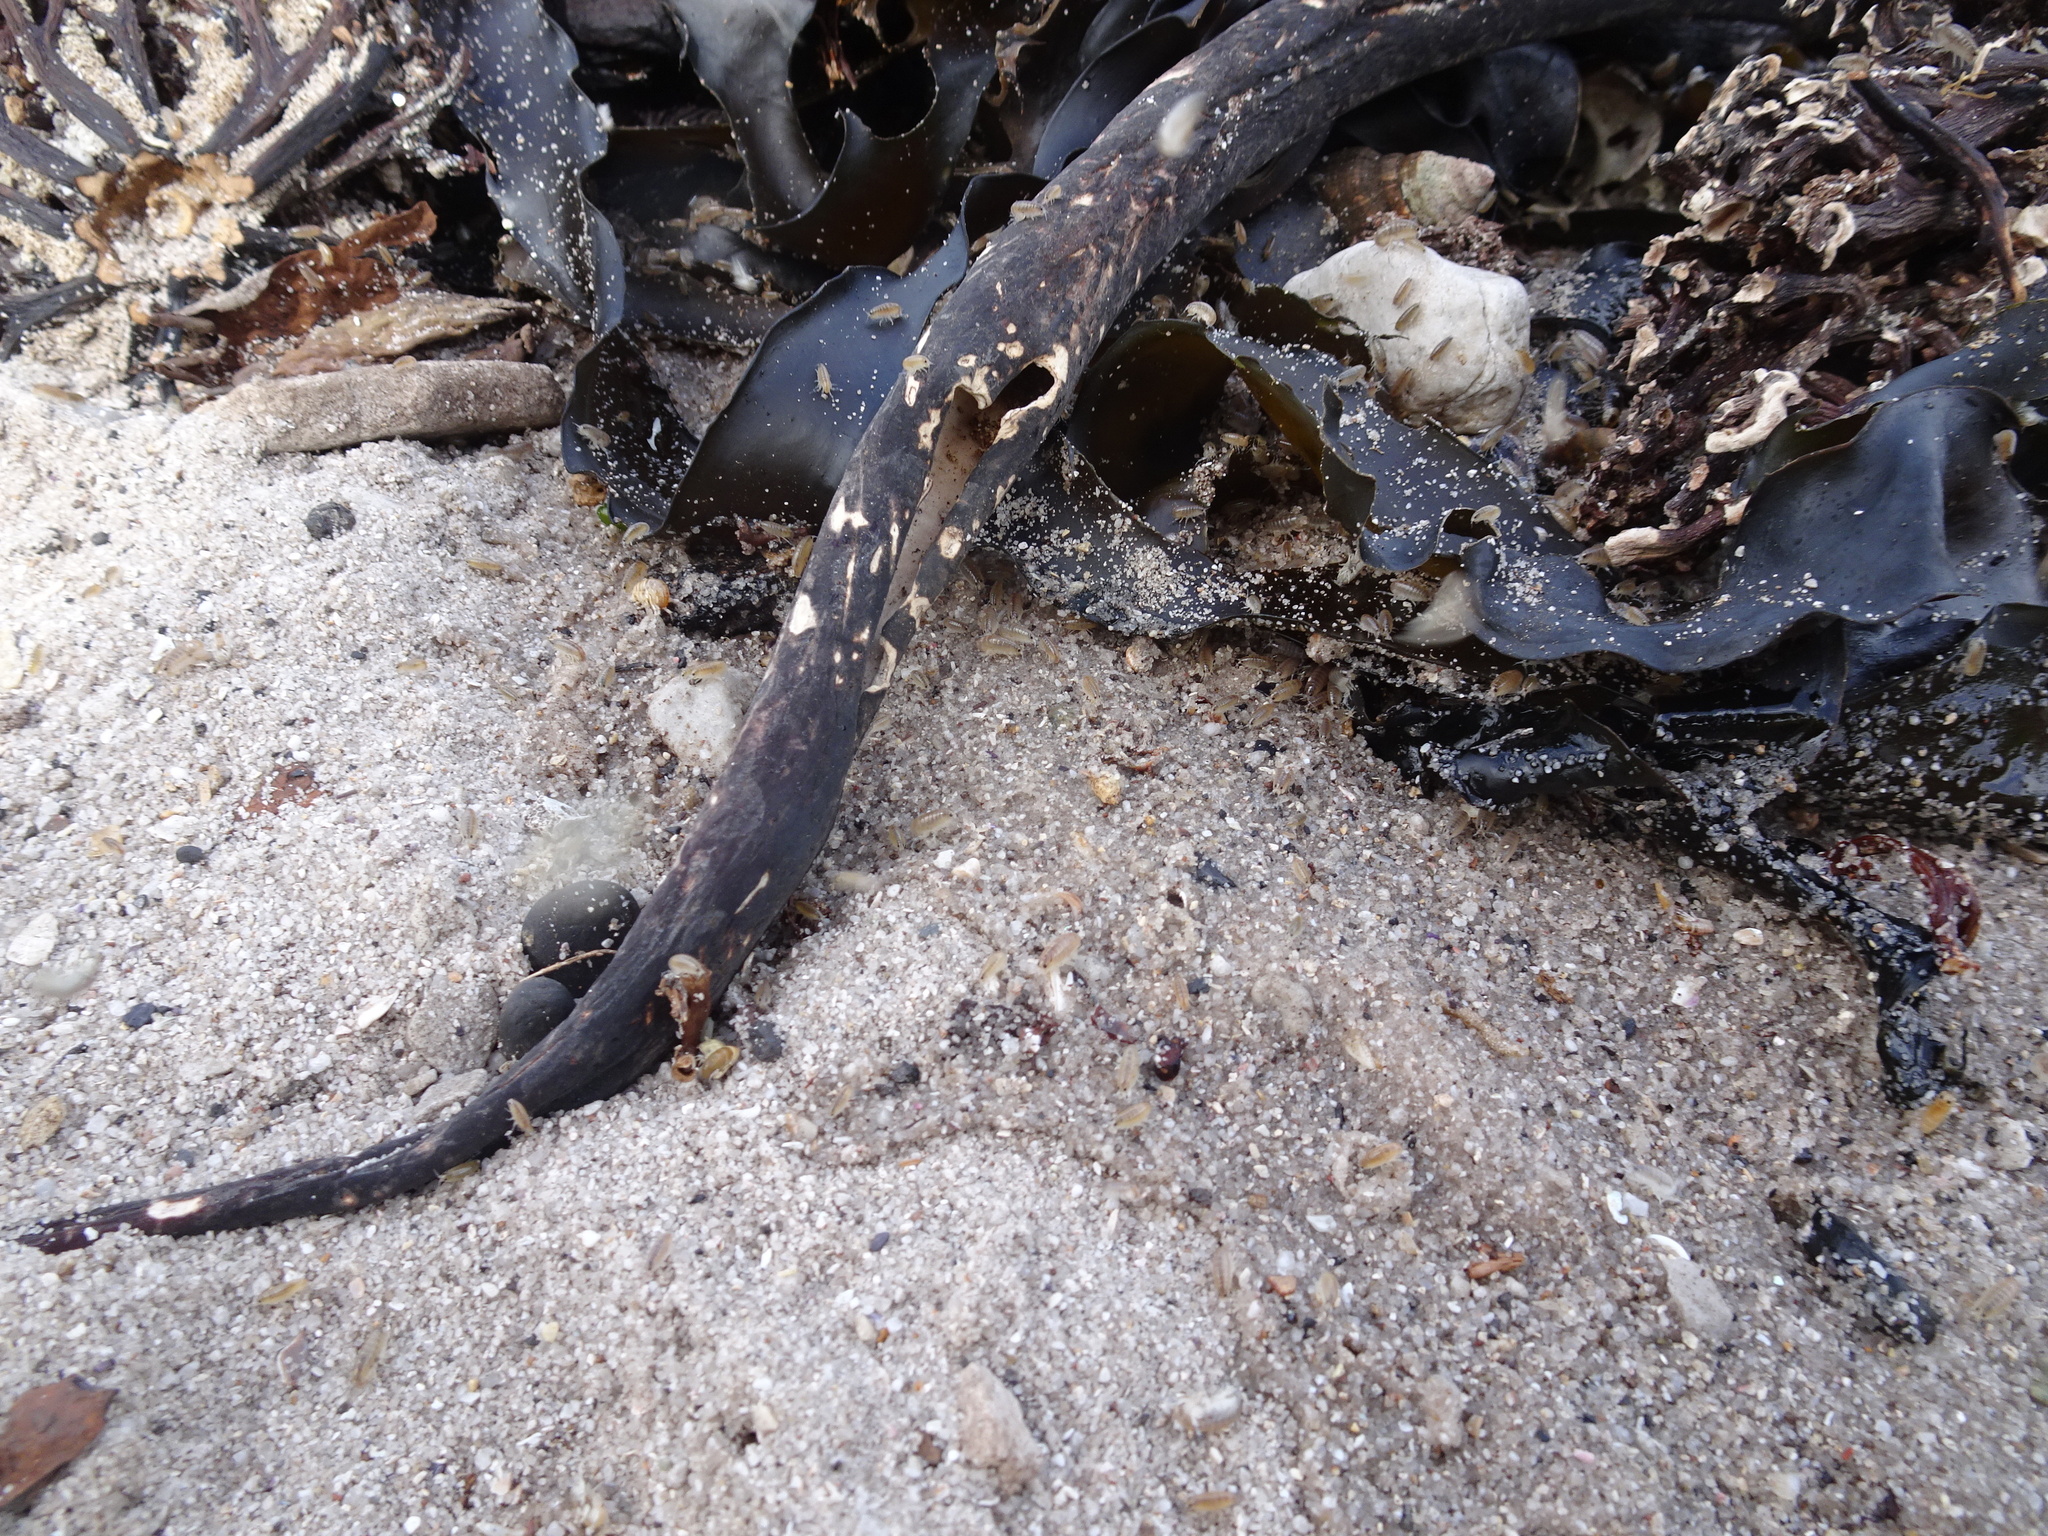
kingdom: Animalia
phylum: Arthropoda
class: Malacostraca
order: Amphipoda
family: Talitridae
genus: Capeorchestia
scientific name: Capeorchestia capensis
